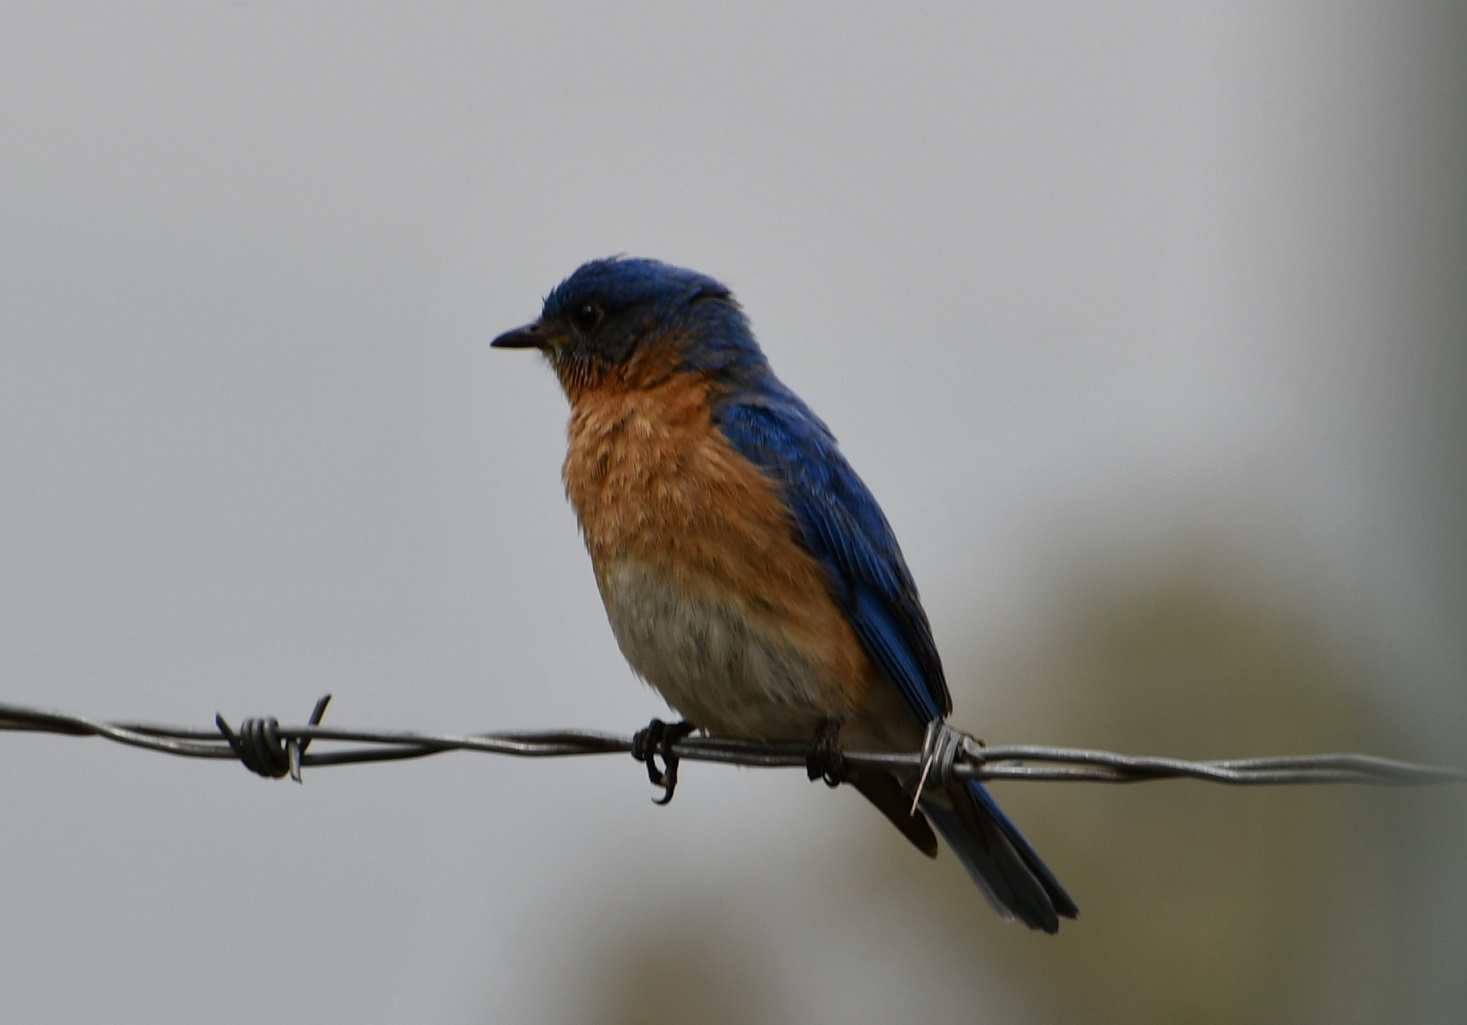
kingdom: Animalia
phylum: Chordata
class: Aves
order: Passeriformes
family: Turdidae
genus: Sialia
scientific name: Sialia sialis
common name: Eastern bluebird
